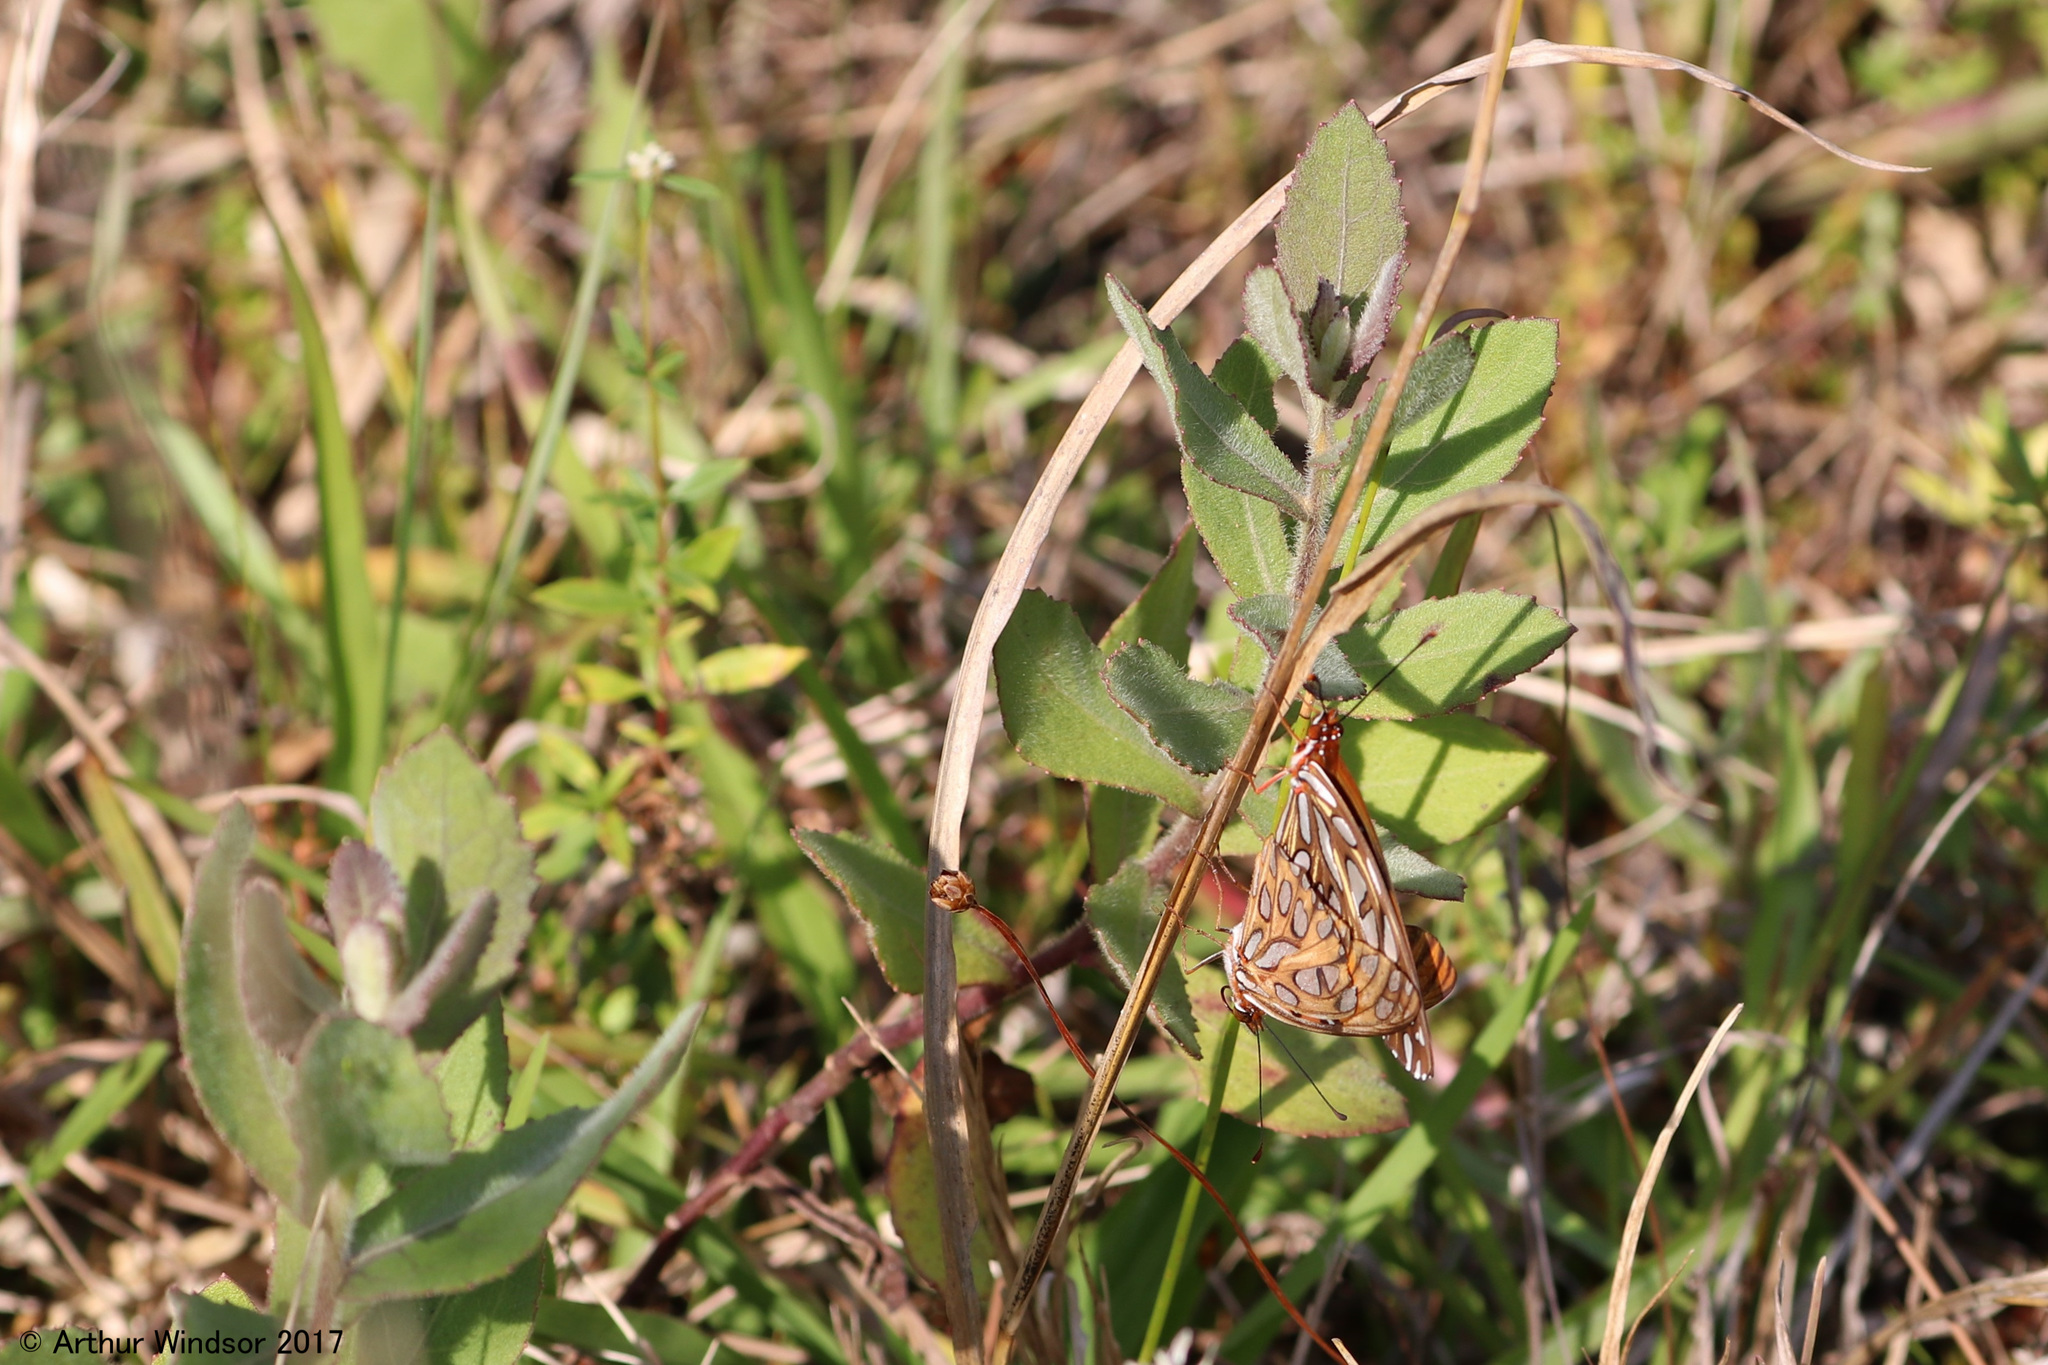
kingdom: Animalia
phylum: Arthropoda
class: Insecta
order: Lepidoptera
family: Nymphalidae
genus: Dione
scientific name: Dione vanillae
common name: Gulf fritillary
